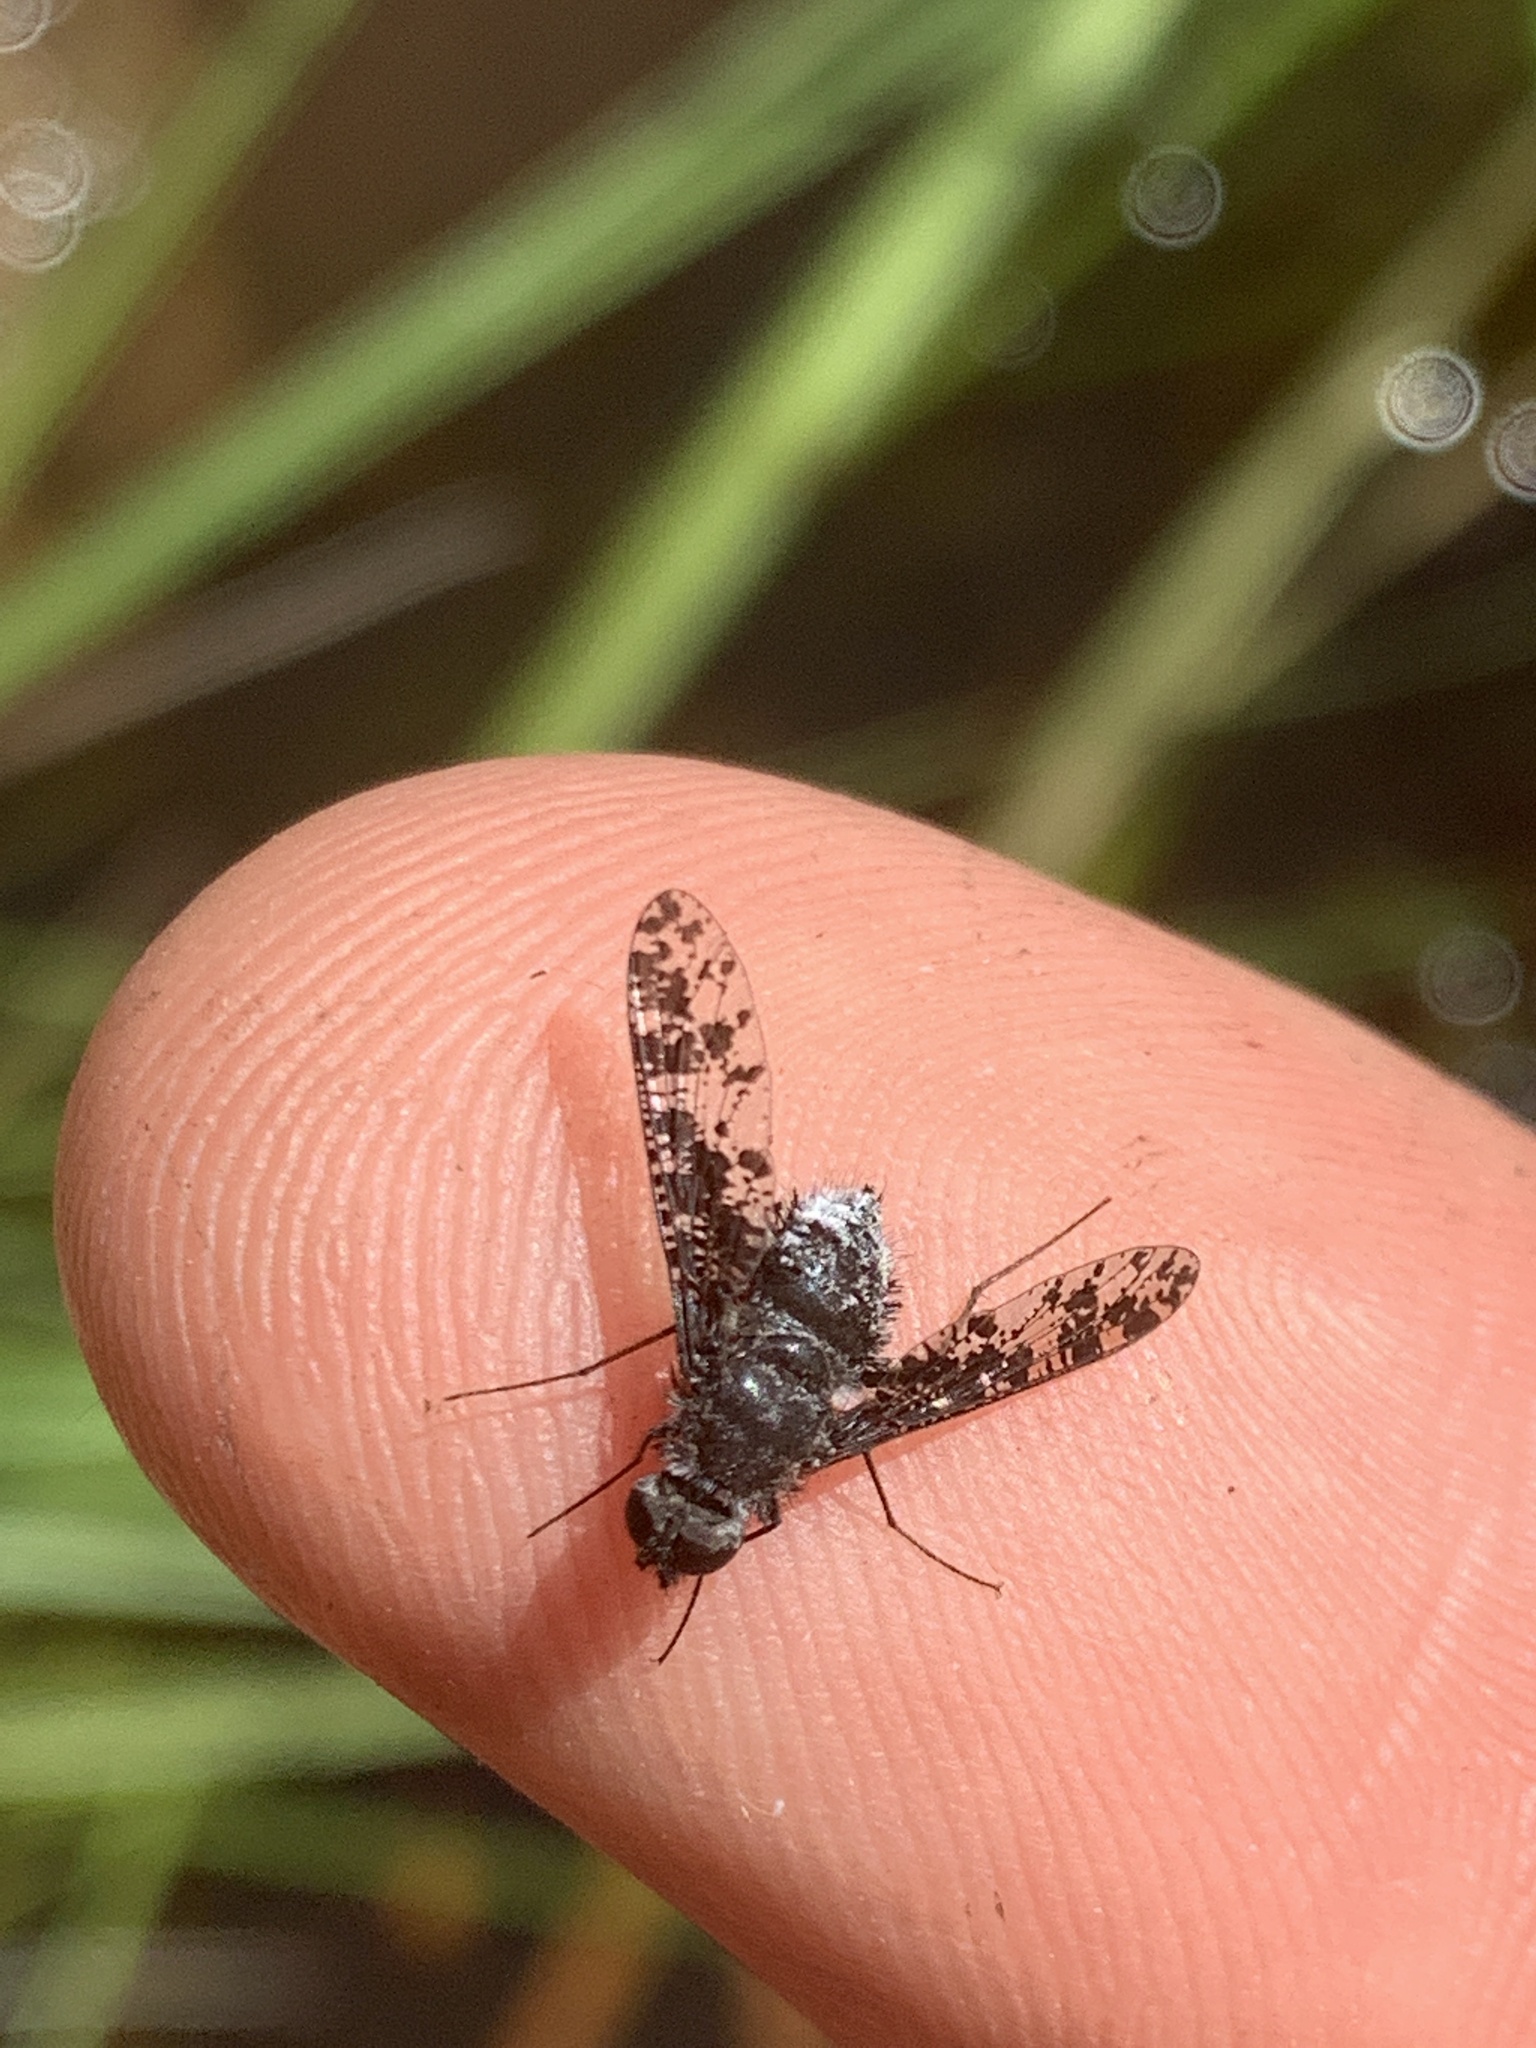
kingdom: Animalia
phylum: Arthropoda
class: Insecta
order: Diptera
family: Bombyliidae
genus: Anthrax
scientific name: Anthrax irroratus
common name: Spotted bee fly
